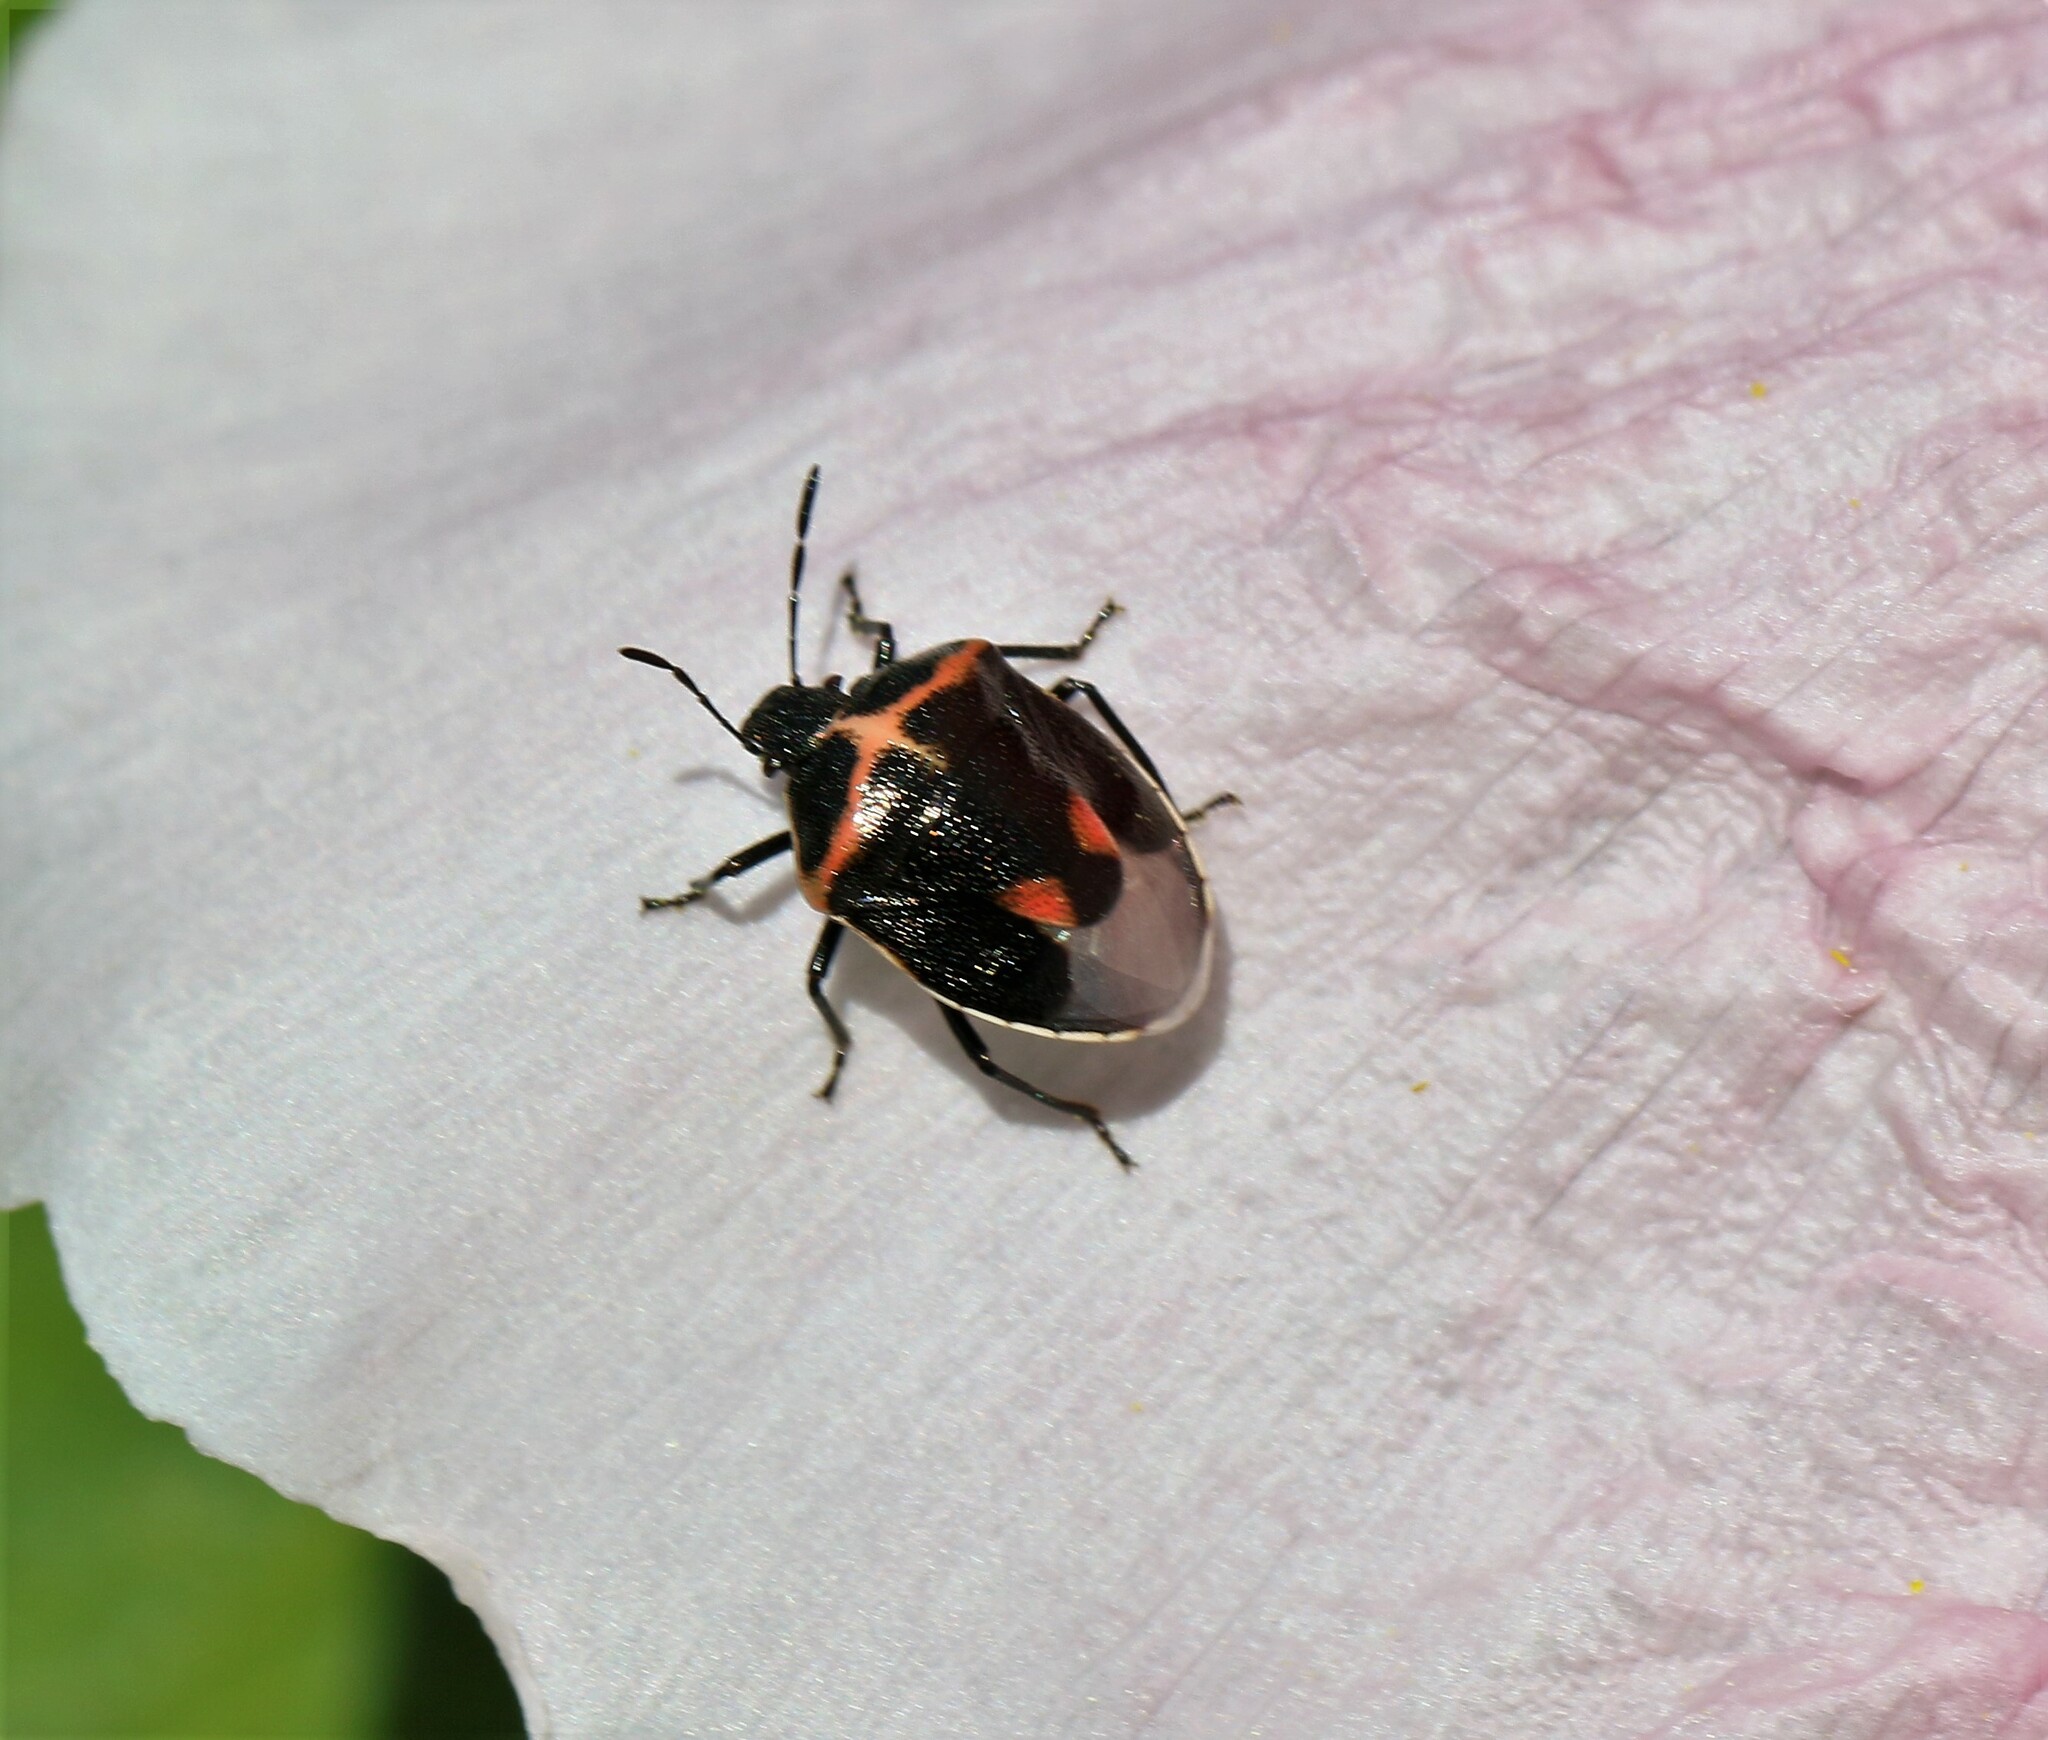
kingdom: Animalia
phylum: Arthropoda
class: Insecta
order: Hemiptera
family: Pentatomidae
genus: Cosmopepla
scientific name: Cosmopepla lintneriana
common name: Twice-stabbed stink bug
